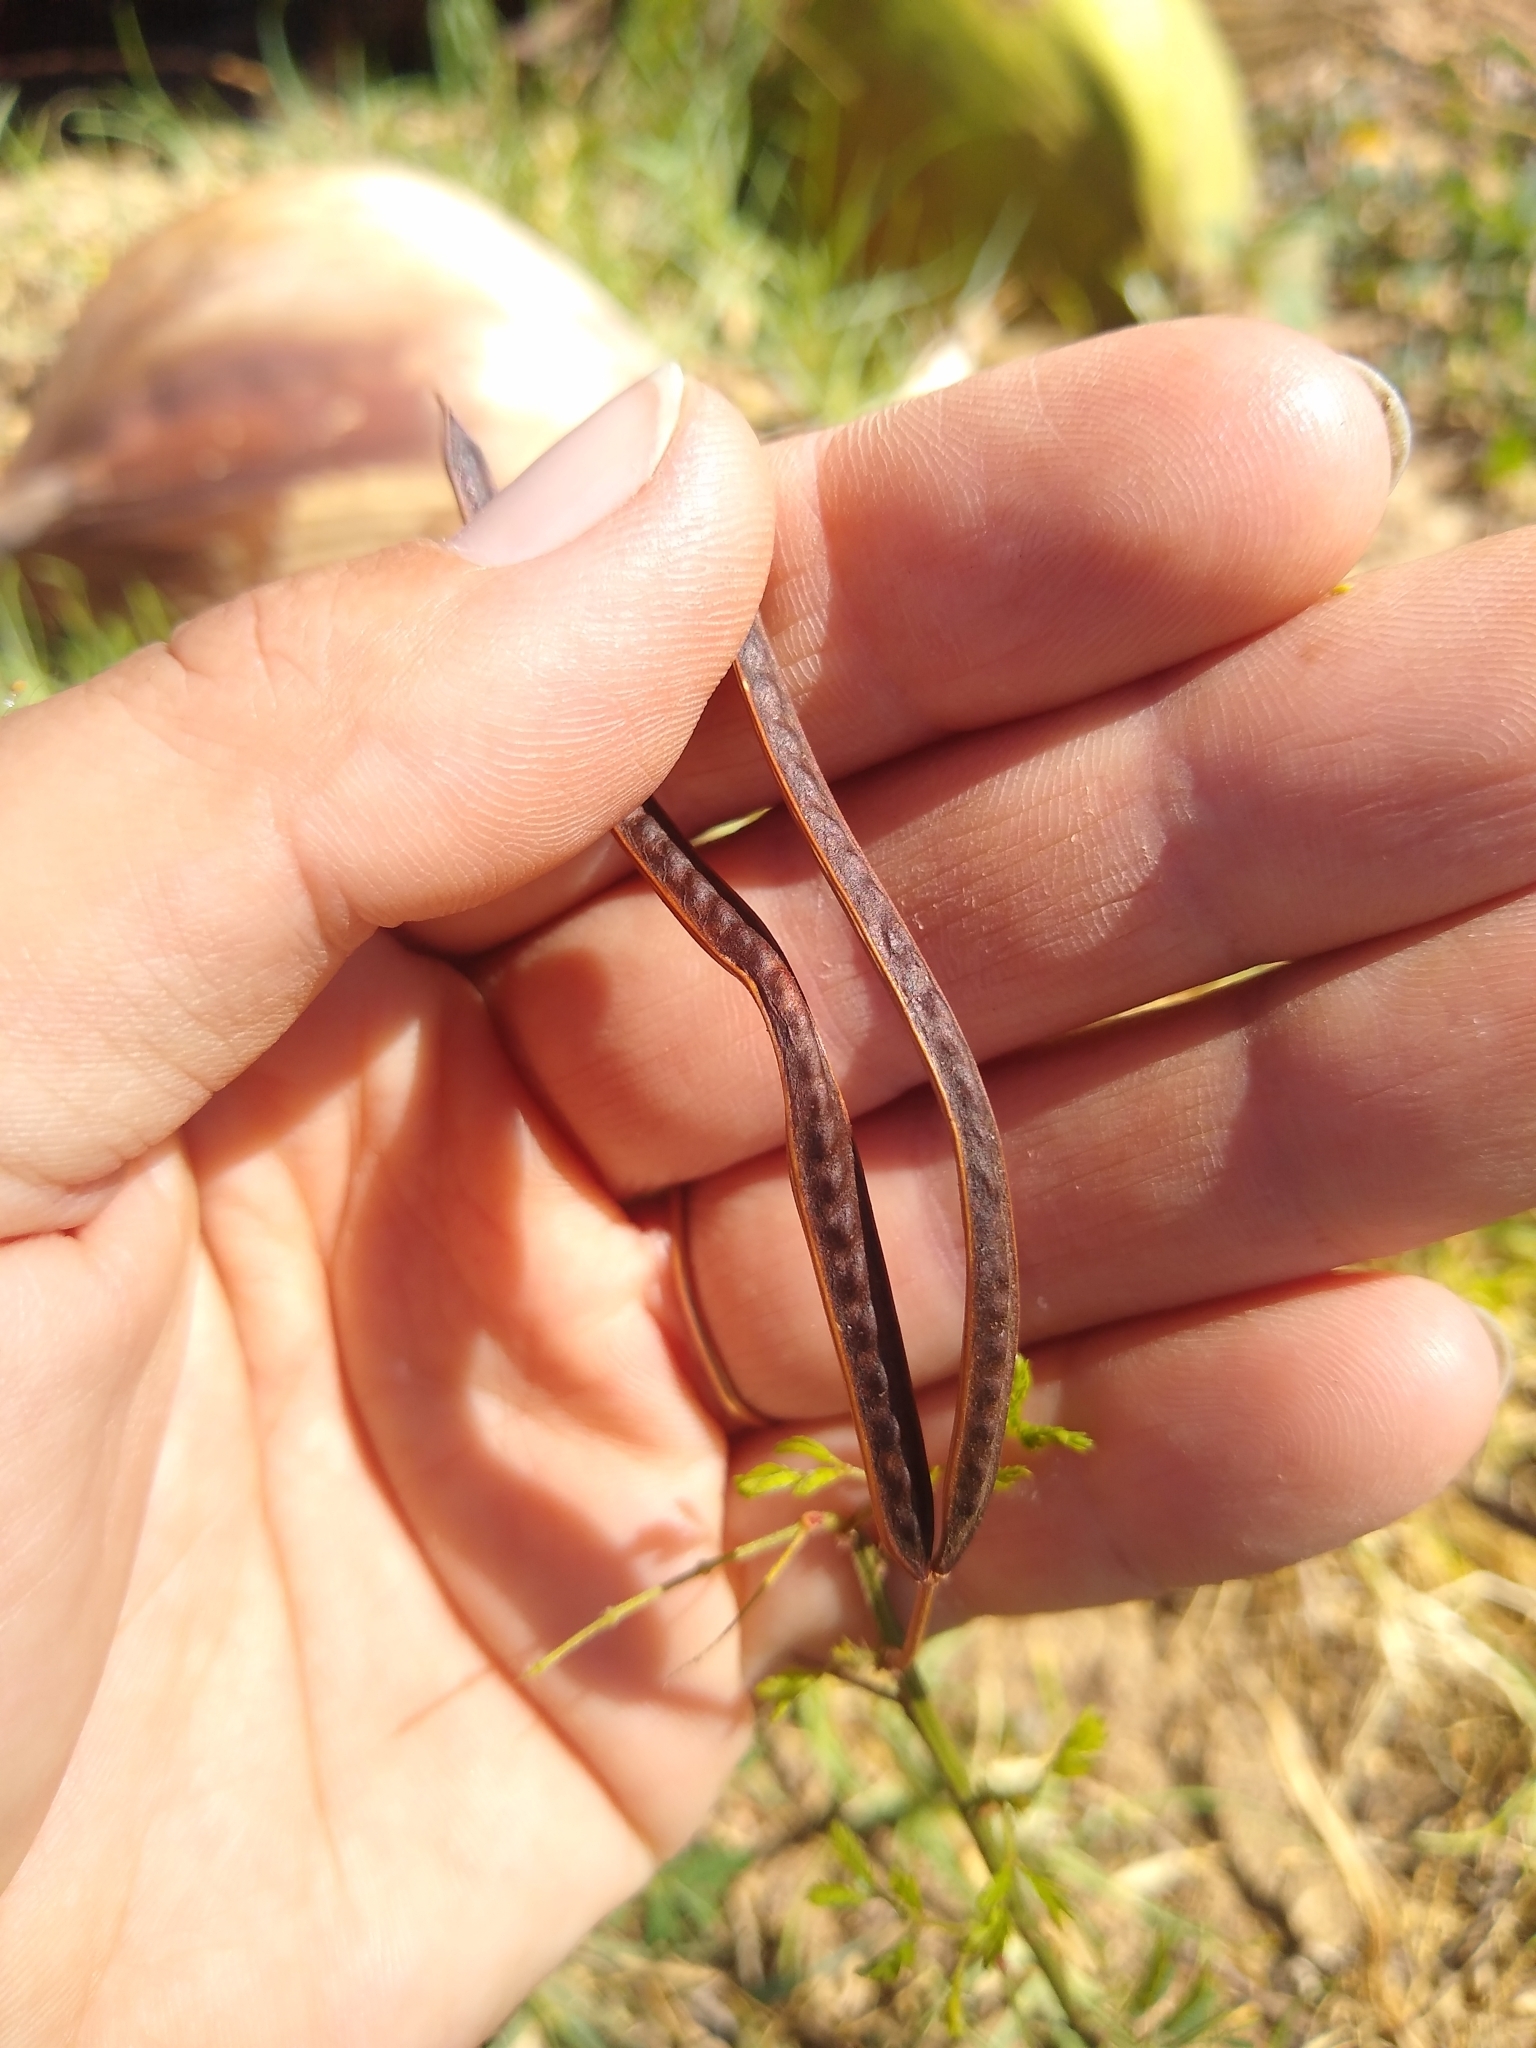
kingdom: Plantae
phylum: Tracheophyta
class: Magnoliopsida
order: Fabales
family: Fabaceae
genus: Desmanthus
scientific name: Desmanthus pernambucanus
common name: Pigeon bundleflower
